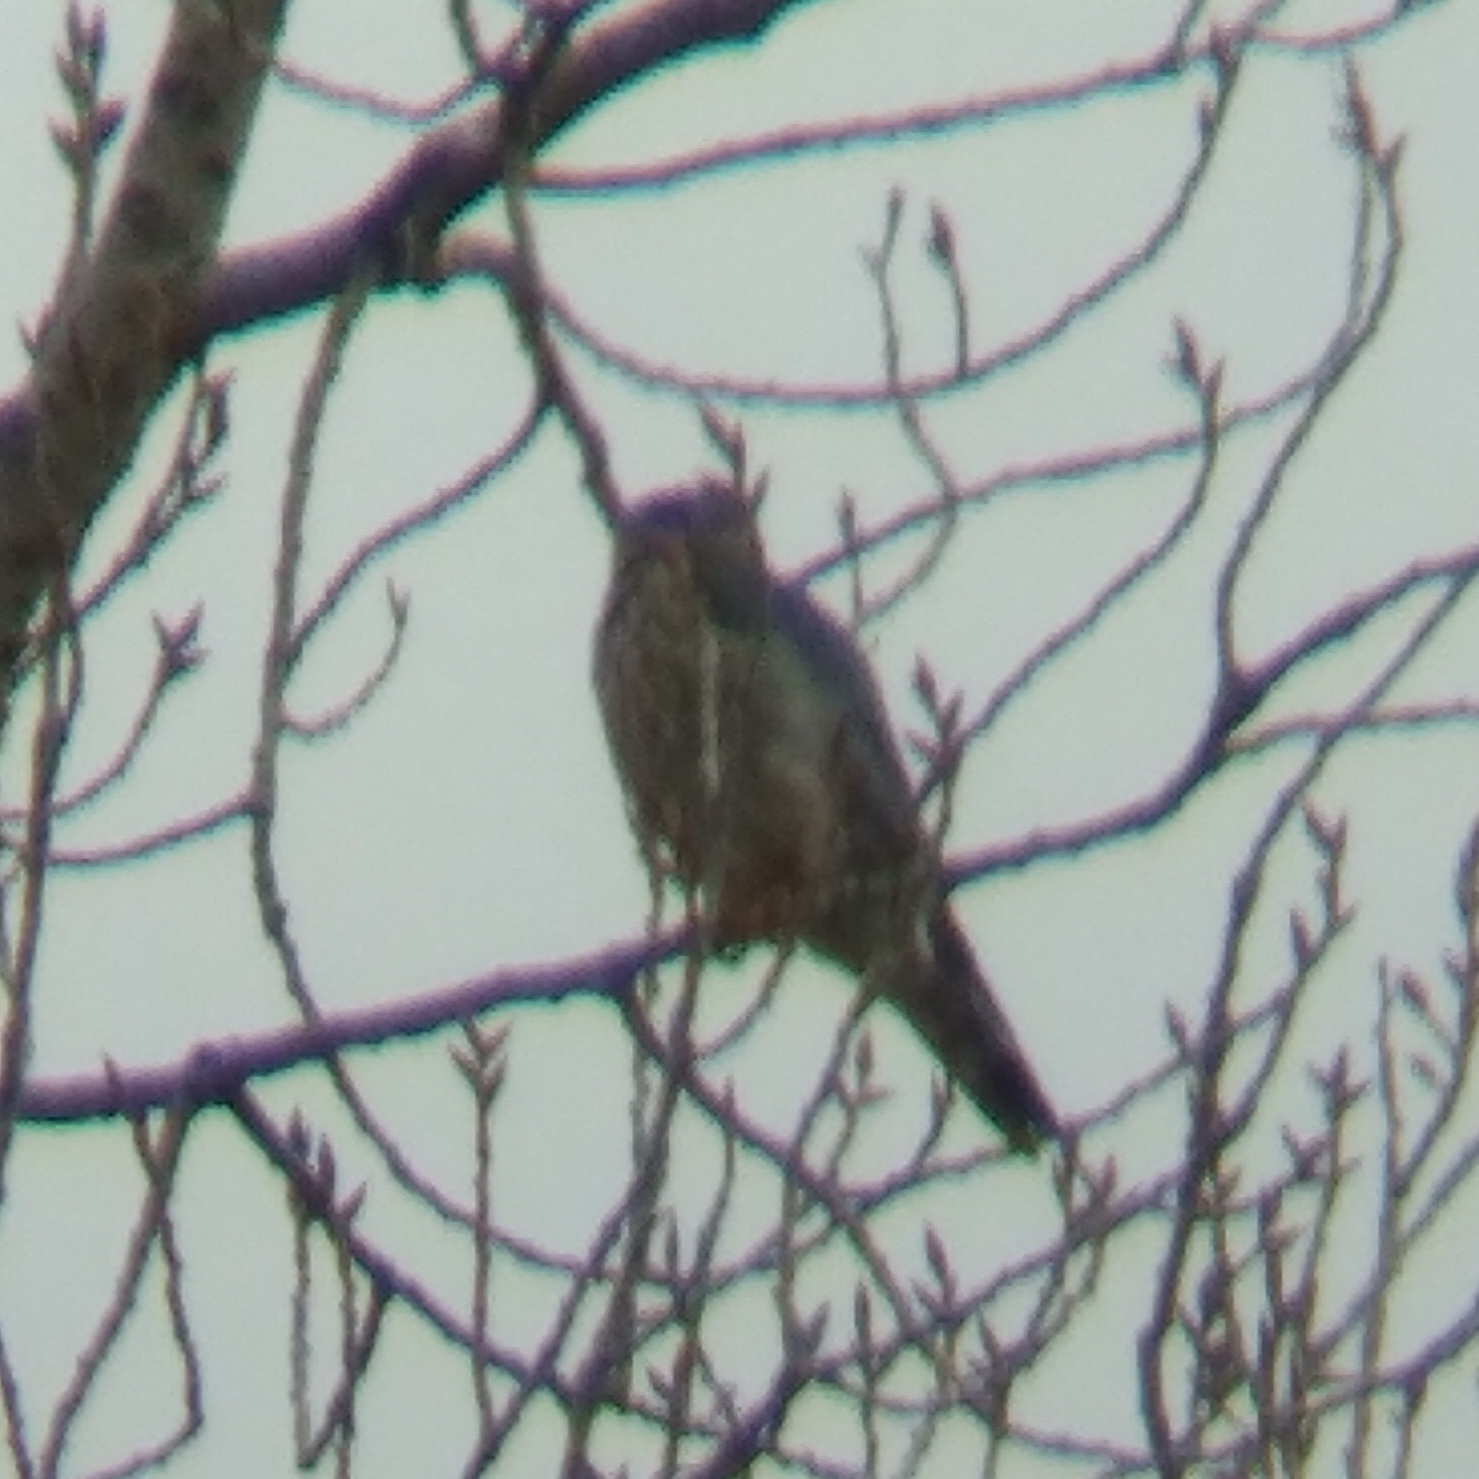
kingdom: Animalia
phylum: Chordata
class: Aves
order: Falconiformes
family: Falconidae
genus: Falco
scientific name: Falco columbarius
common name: Merlin
